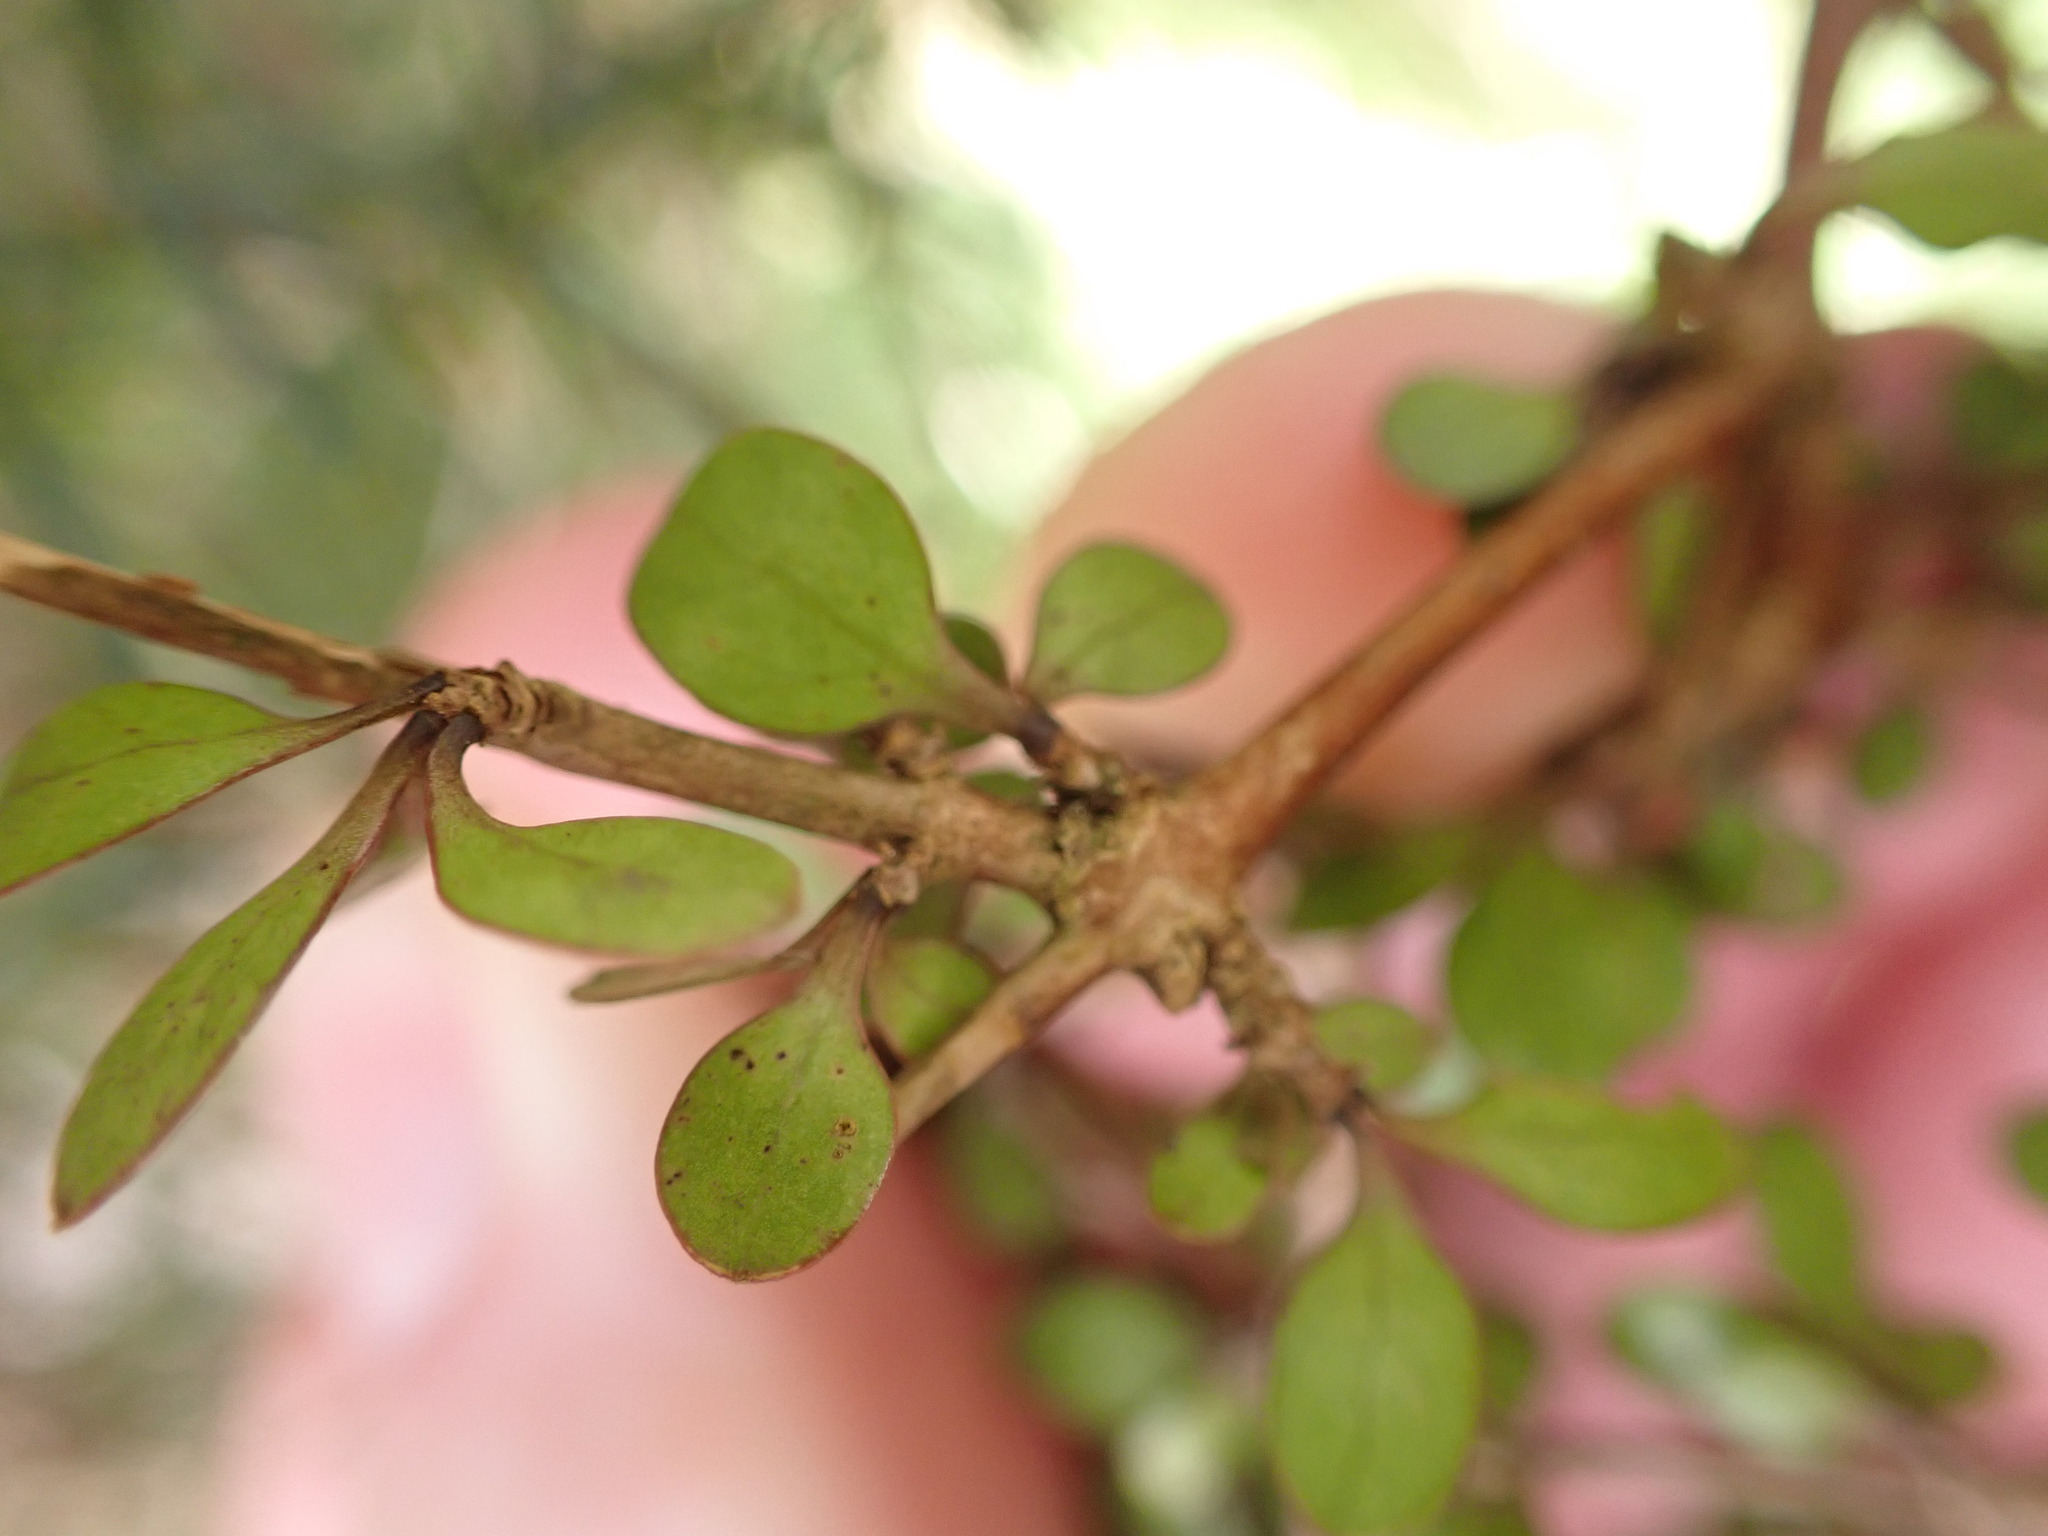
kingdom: Plantae
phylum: Tracheophyta
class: Magnoliopsida
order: Gentianales
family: Rubiaceae
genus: Coprosma
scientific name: Coprosma rigida
